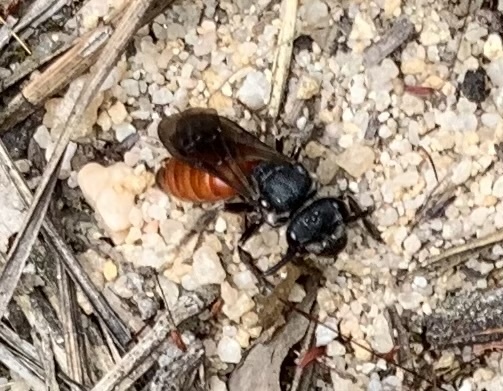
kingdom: Animalia
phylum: Arthropoda
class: Insecta
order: Hymenoptera
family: Halictidae
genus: Sphecodes
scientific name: Sphecodes albilabris
